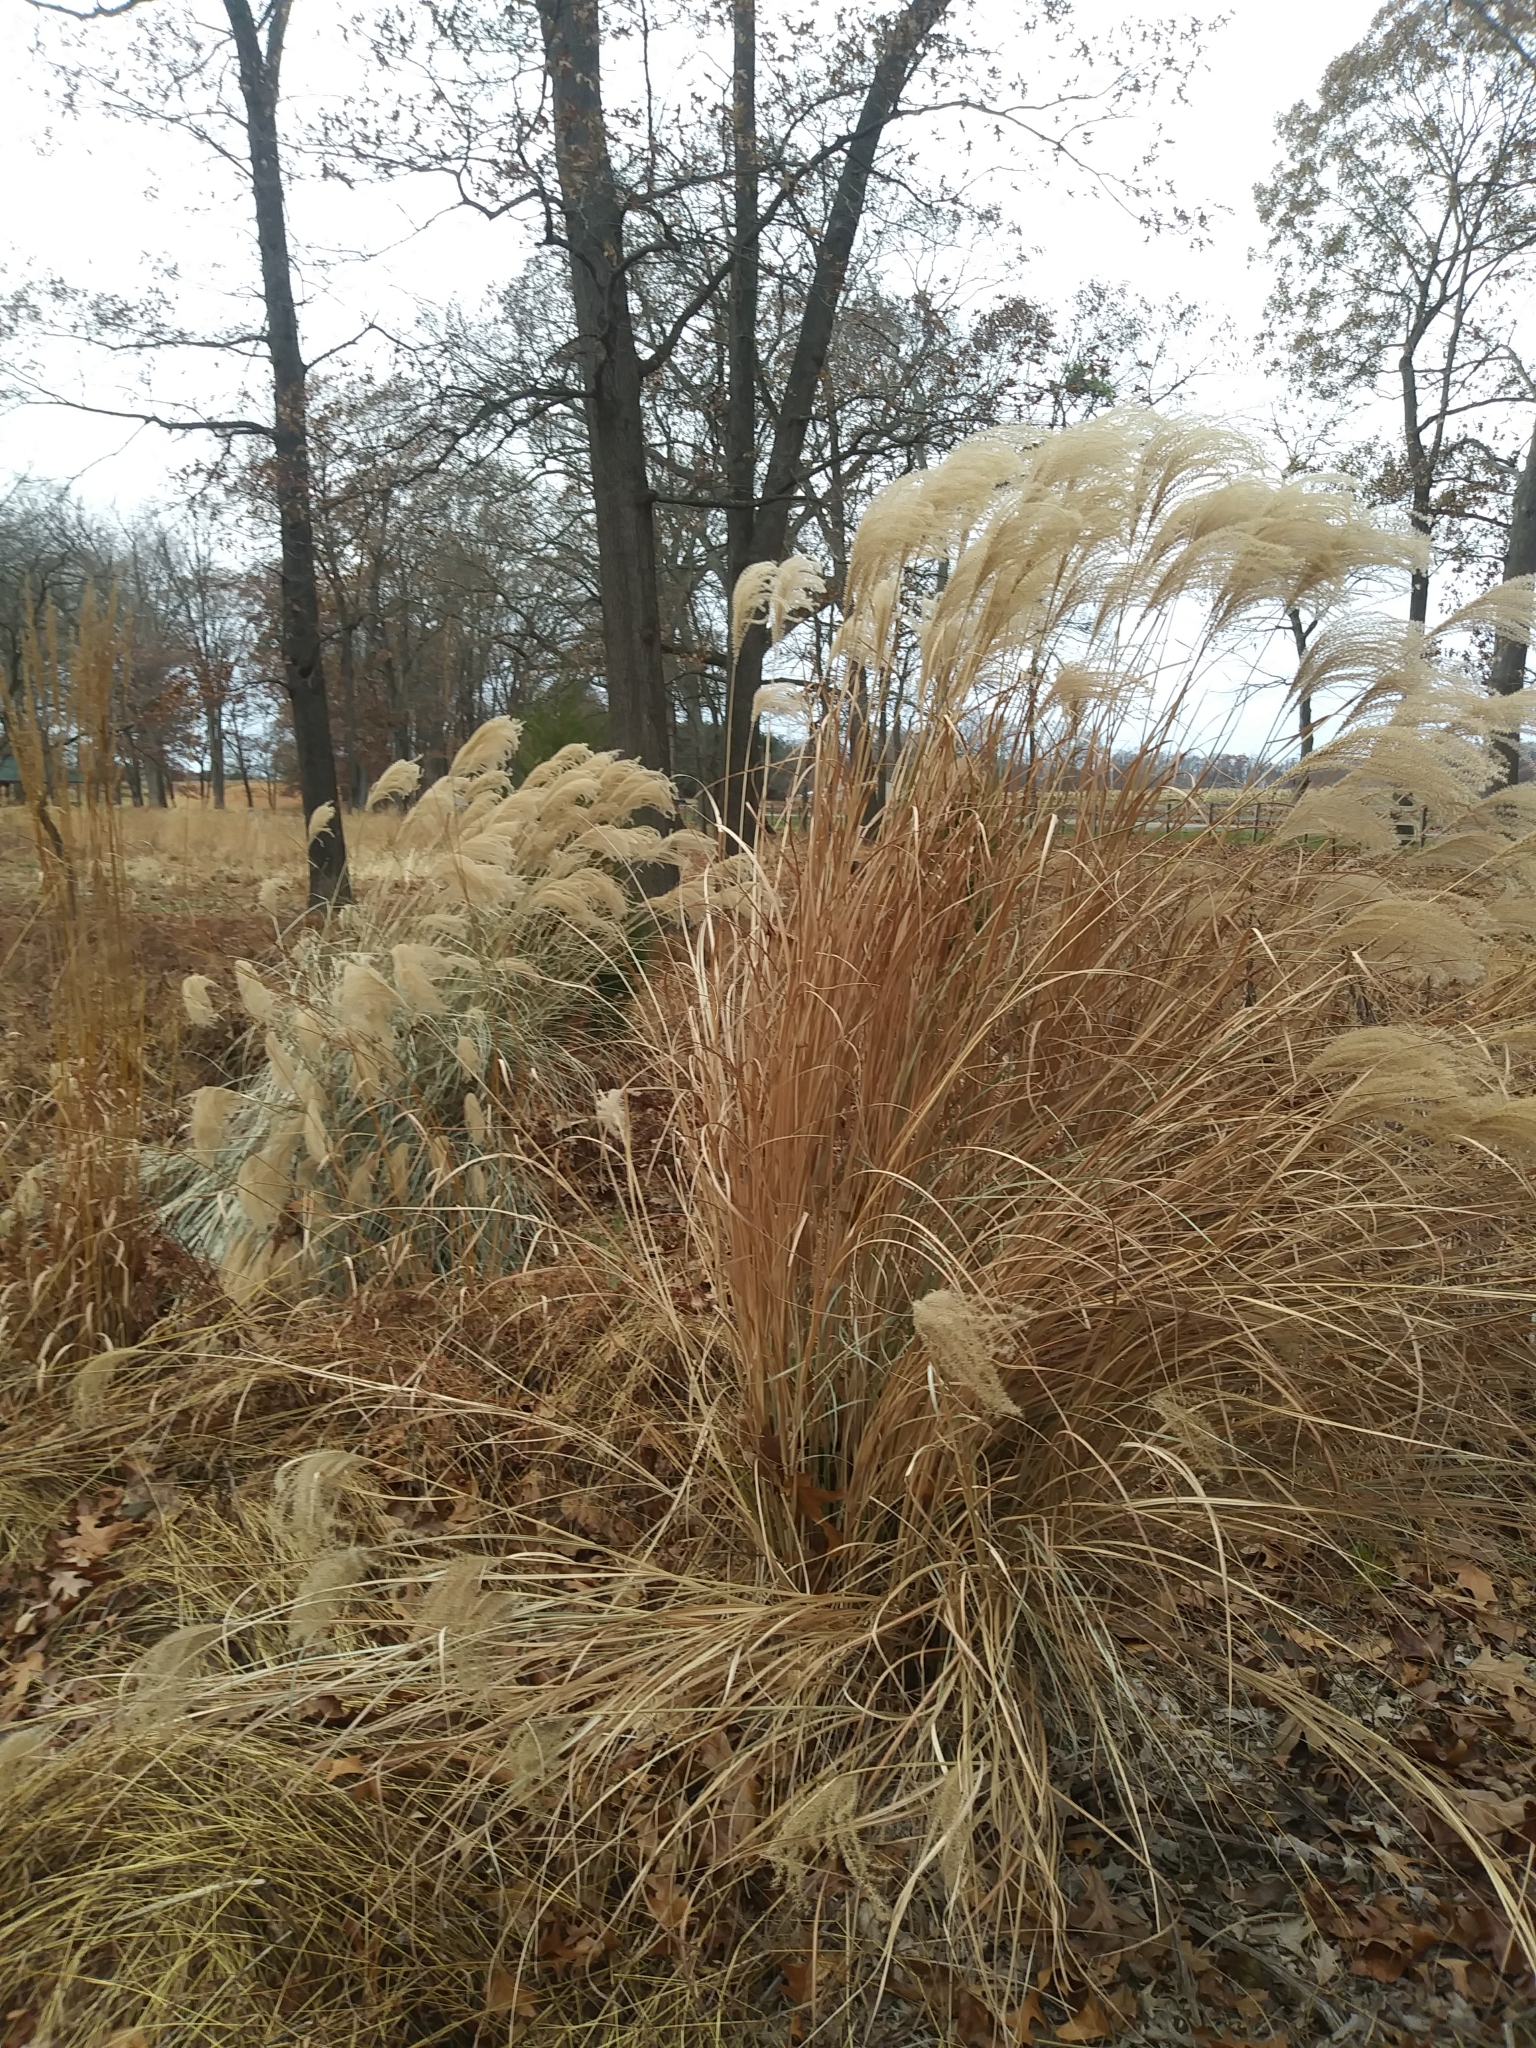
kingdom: Plantae
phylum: Tracheophyta
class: Liliopsida
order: Poales
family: Poaceae
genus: Miscanthus
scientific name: Miscanthus sinensis
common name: Chinese silvergrass
